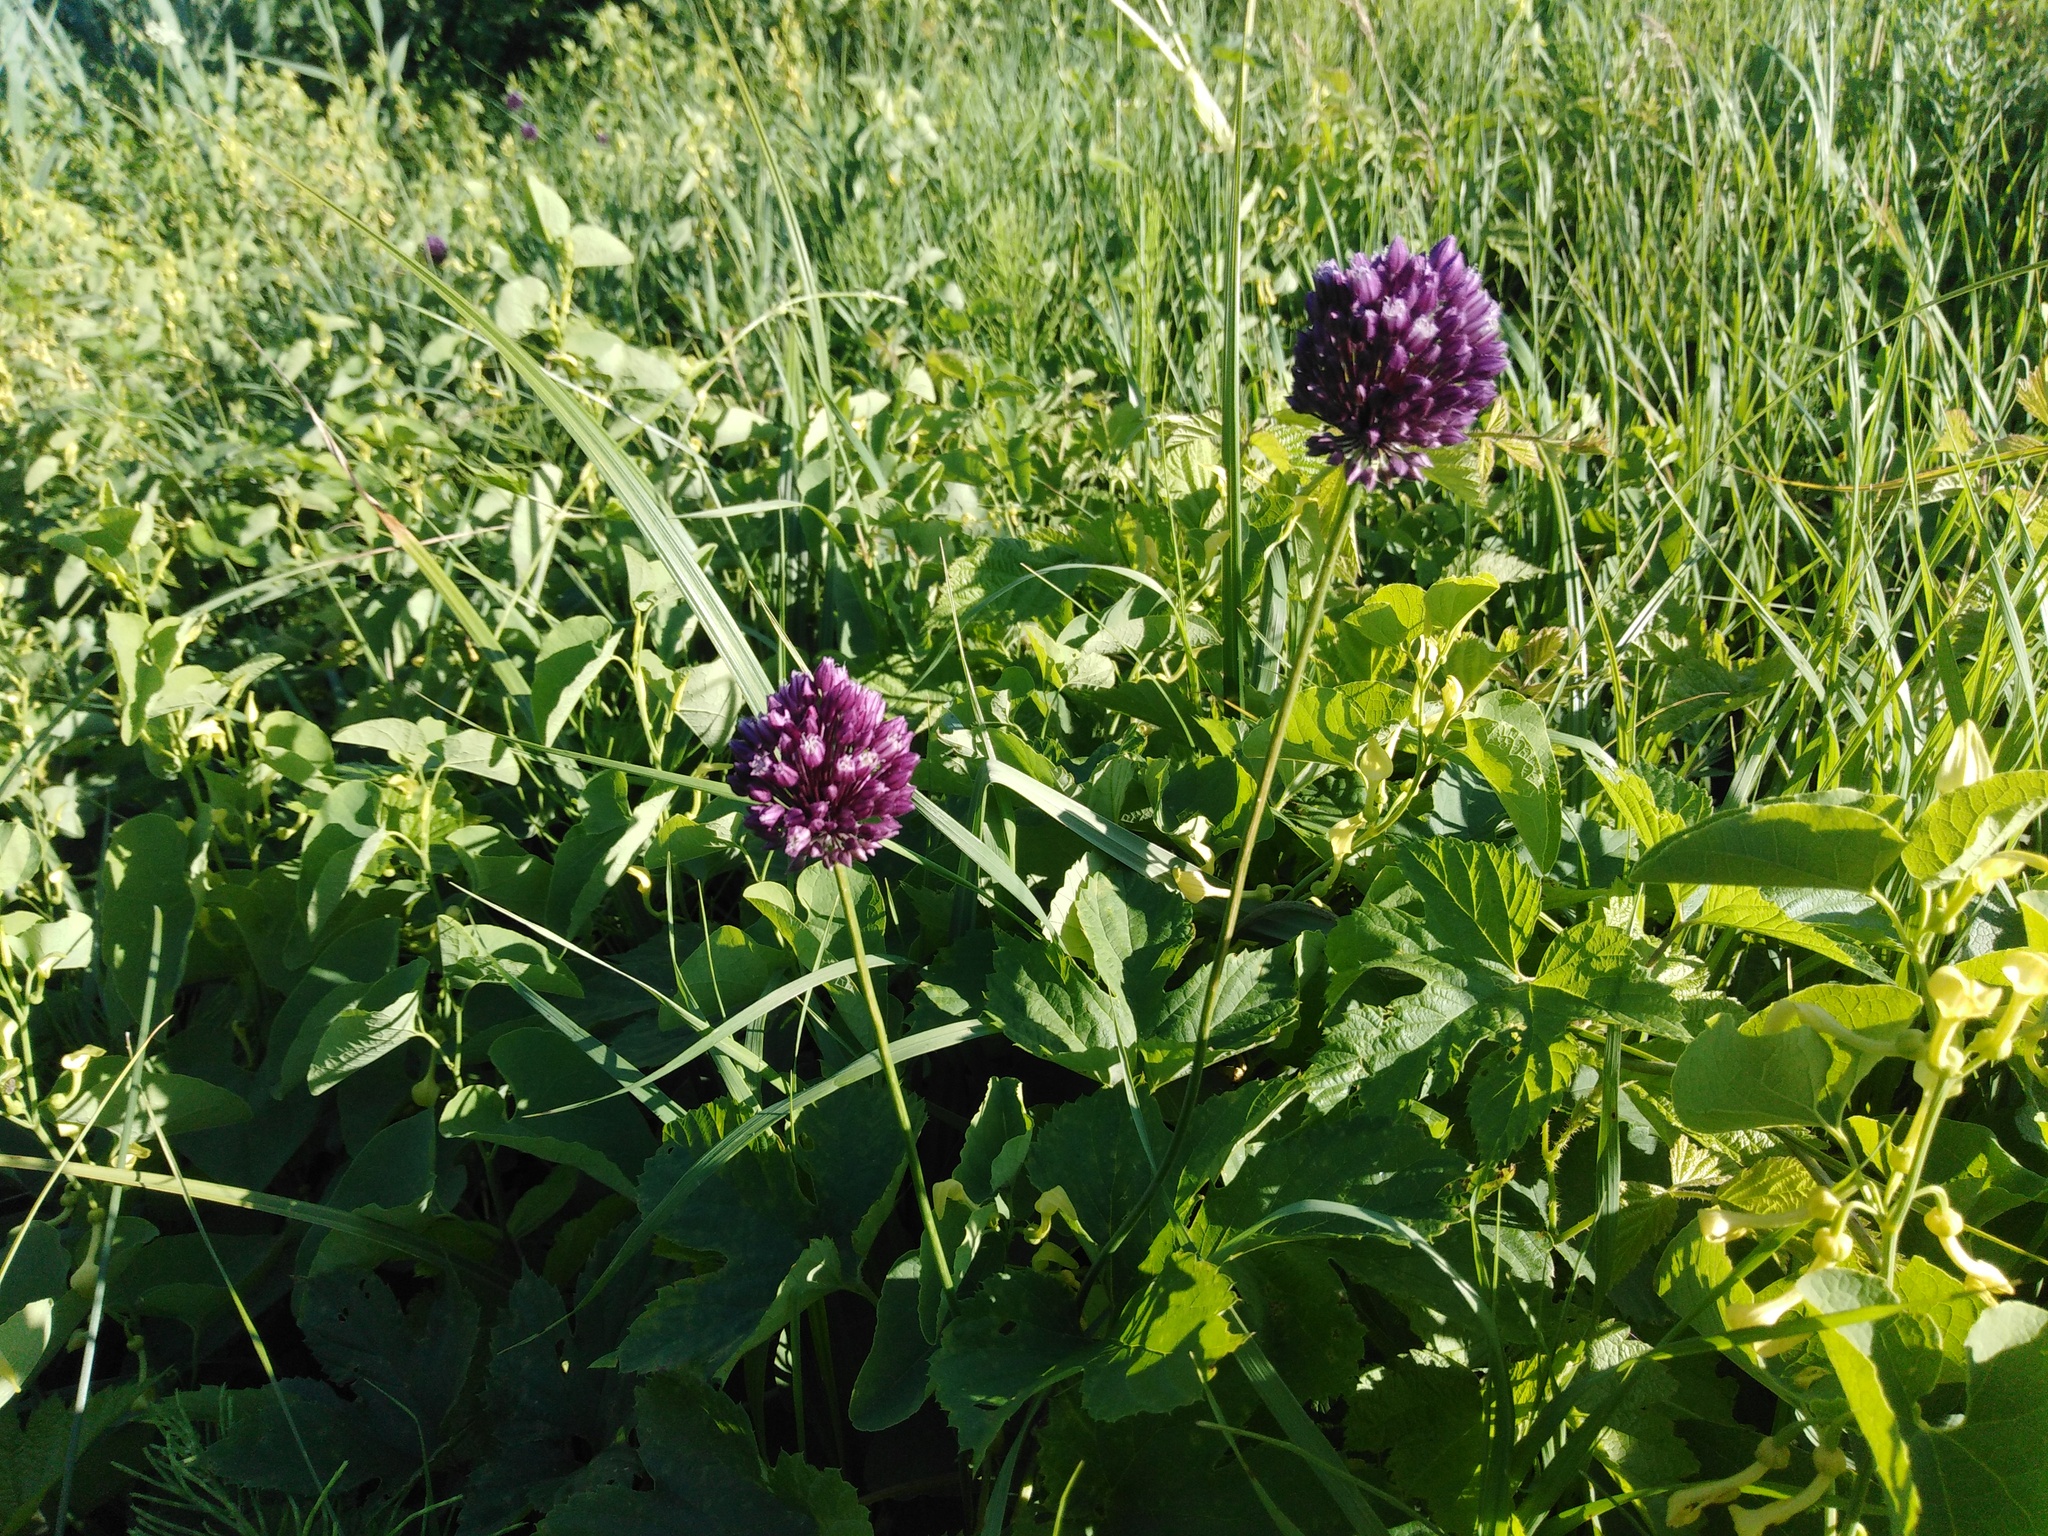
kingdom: Plantae
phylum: Tracheophyta
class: Liliopsida
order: Asparagales
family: Amaryllidaceae
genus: Allium
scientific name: Allium rotundum
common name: Sand leek
